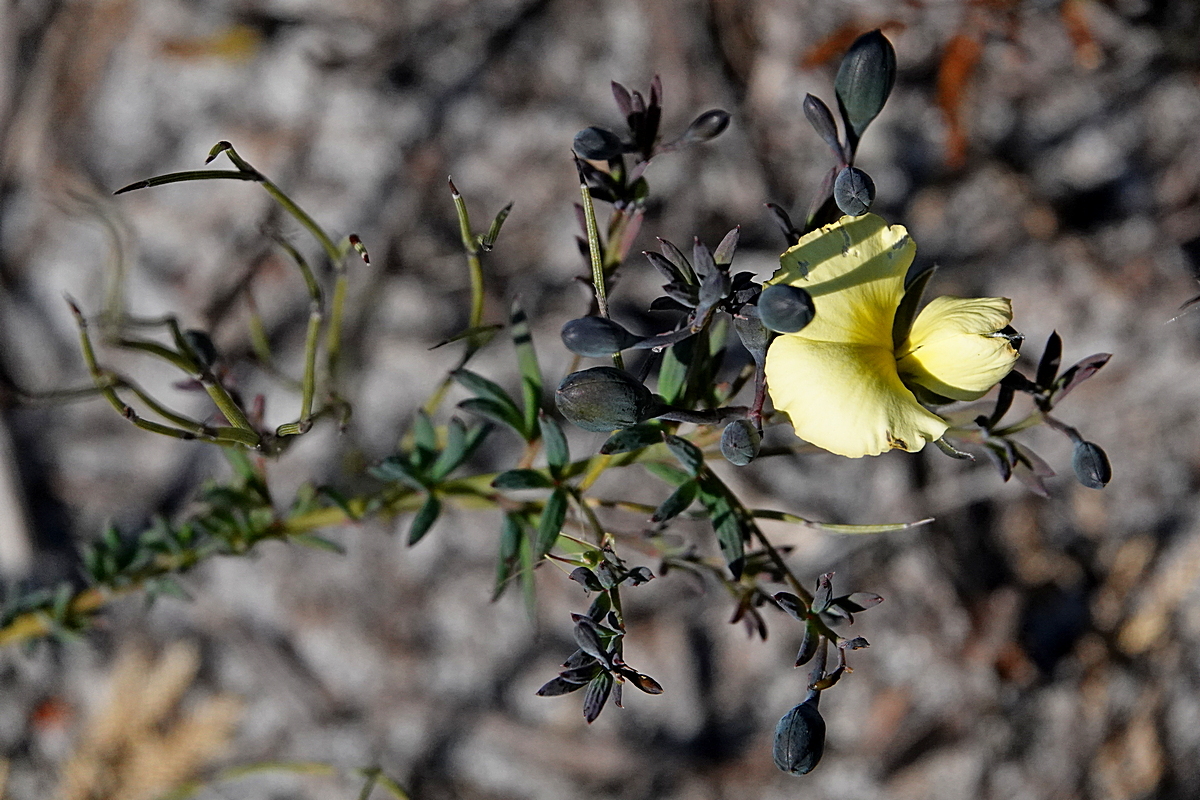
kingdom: Plantae
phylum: Tracheophyta
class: Magnoliopsida
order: Fabales
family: Fabaceae
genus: Gompholobium
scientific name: Gompholobium huegelii
